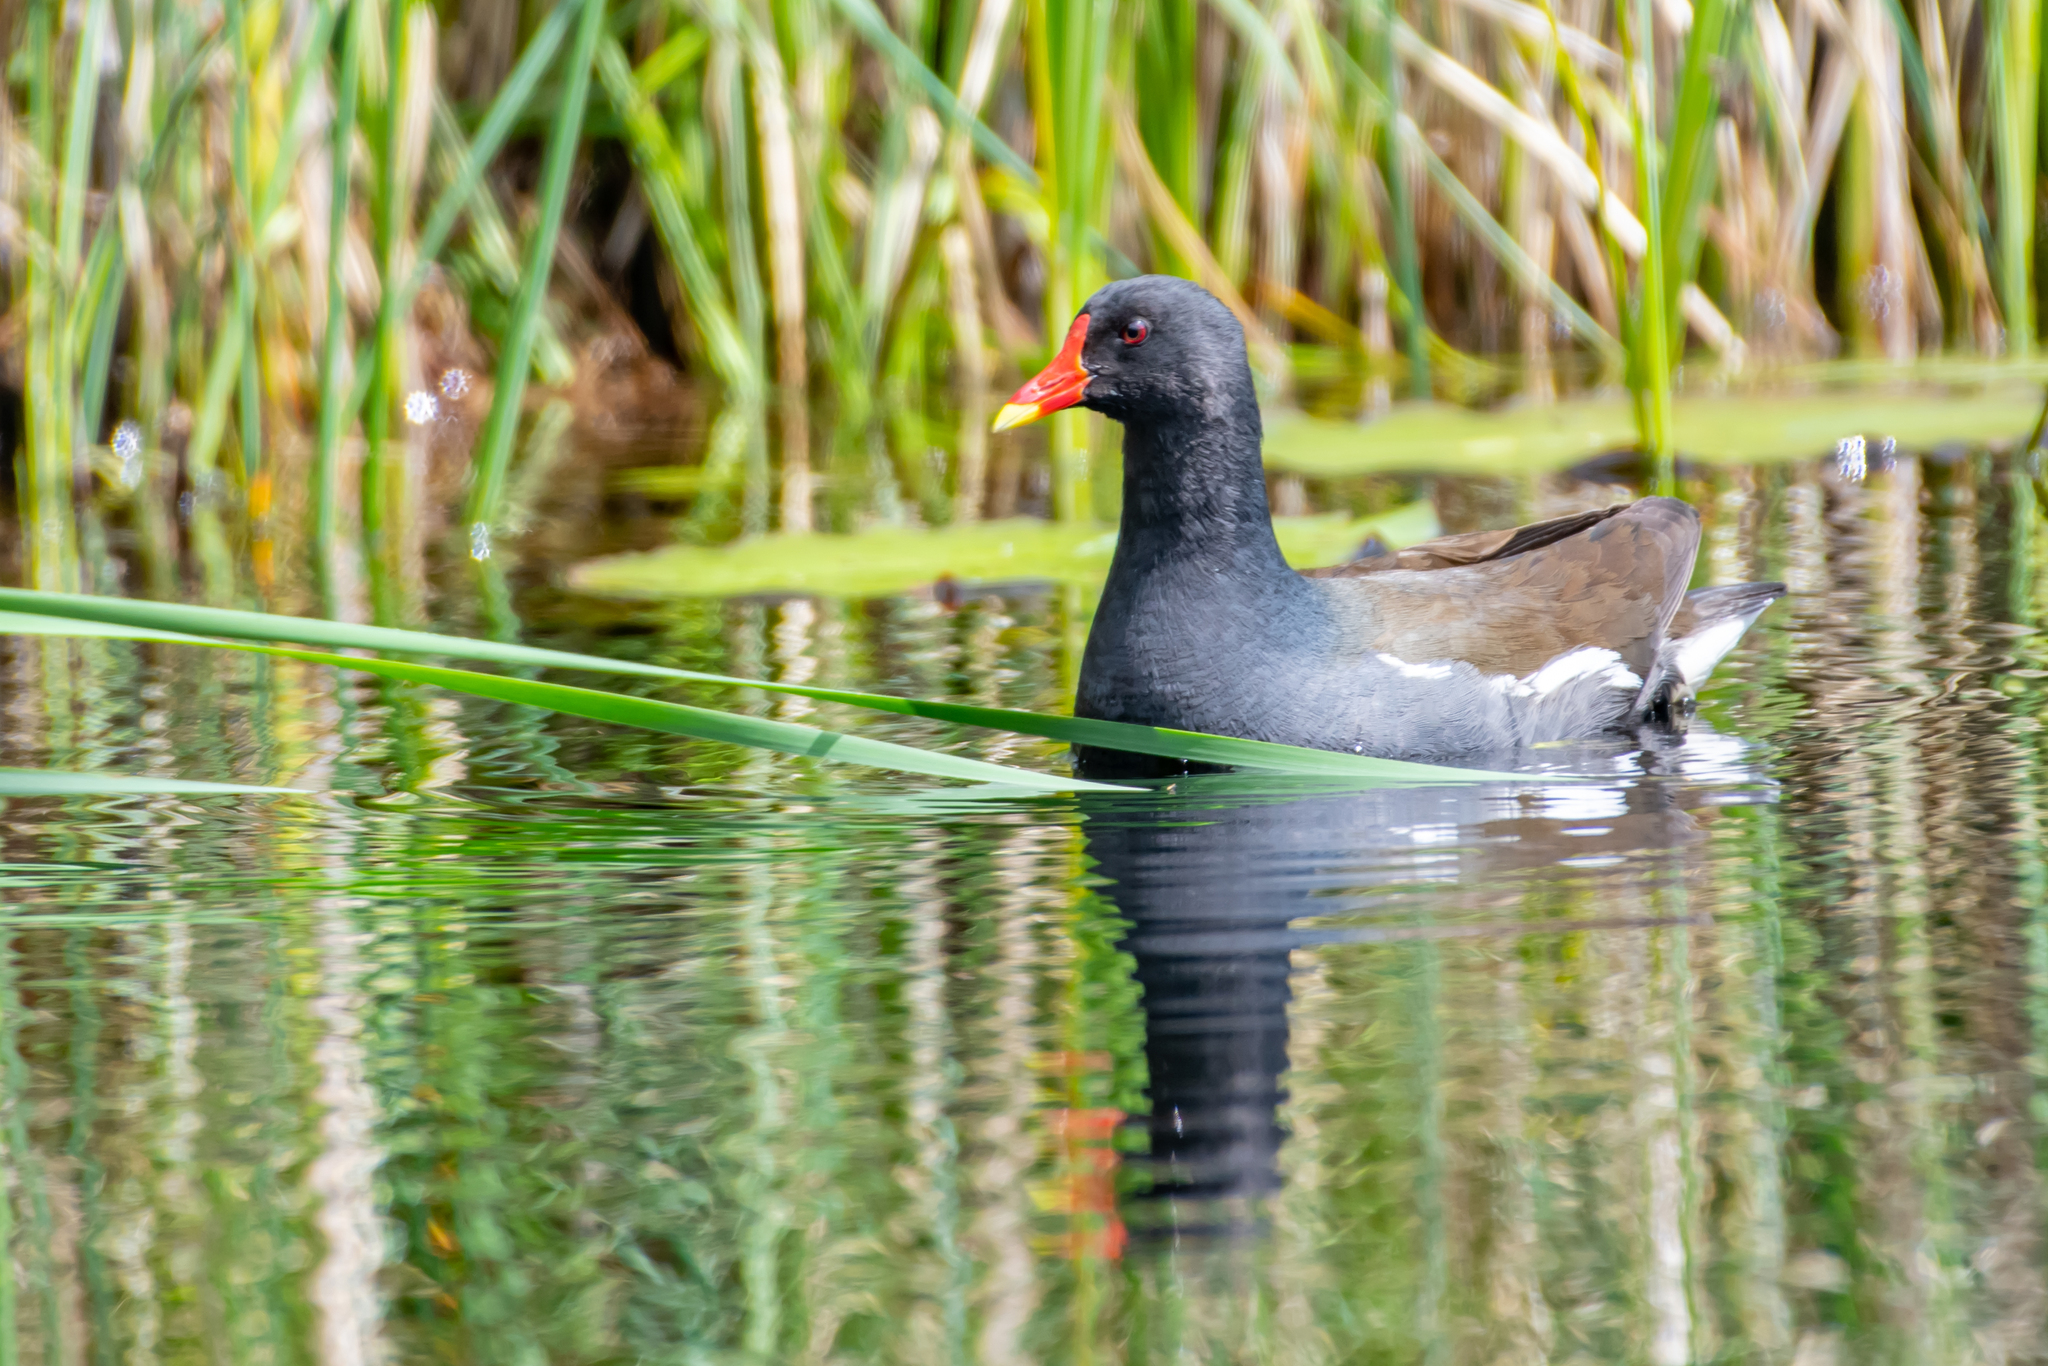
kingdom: Animalia
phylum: Chordata
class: Aves
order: Gruiformes
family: Rallidae
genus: Gallinula
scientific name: Gallinula chloropus
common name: Common moorhen
